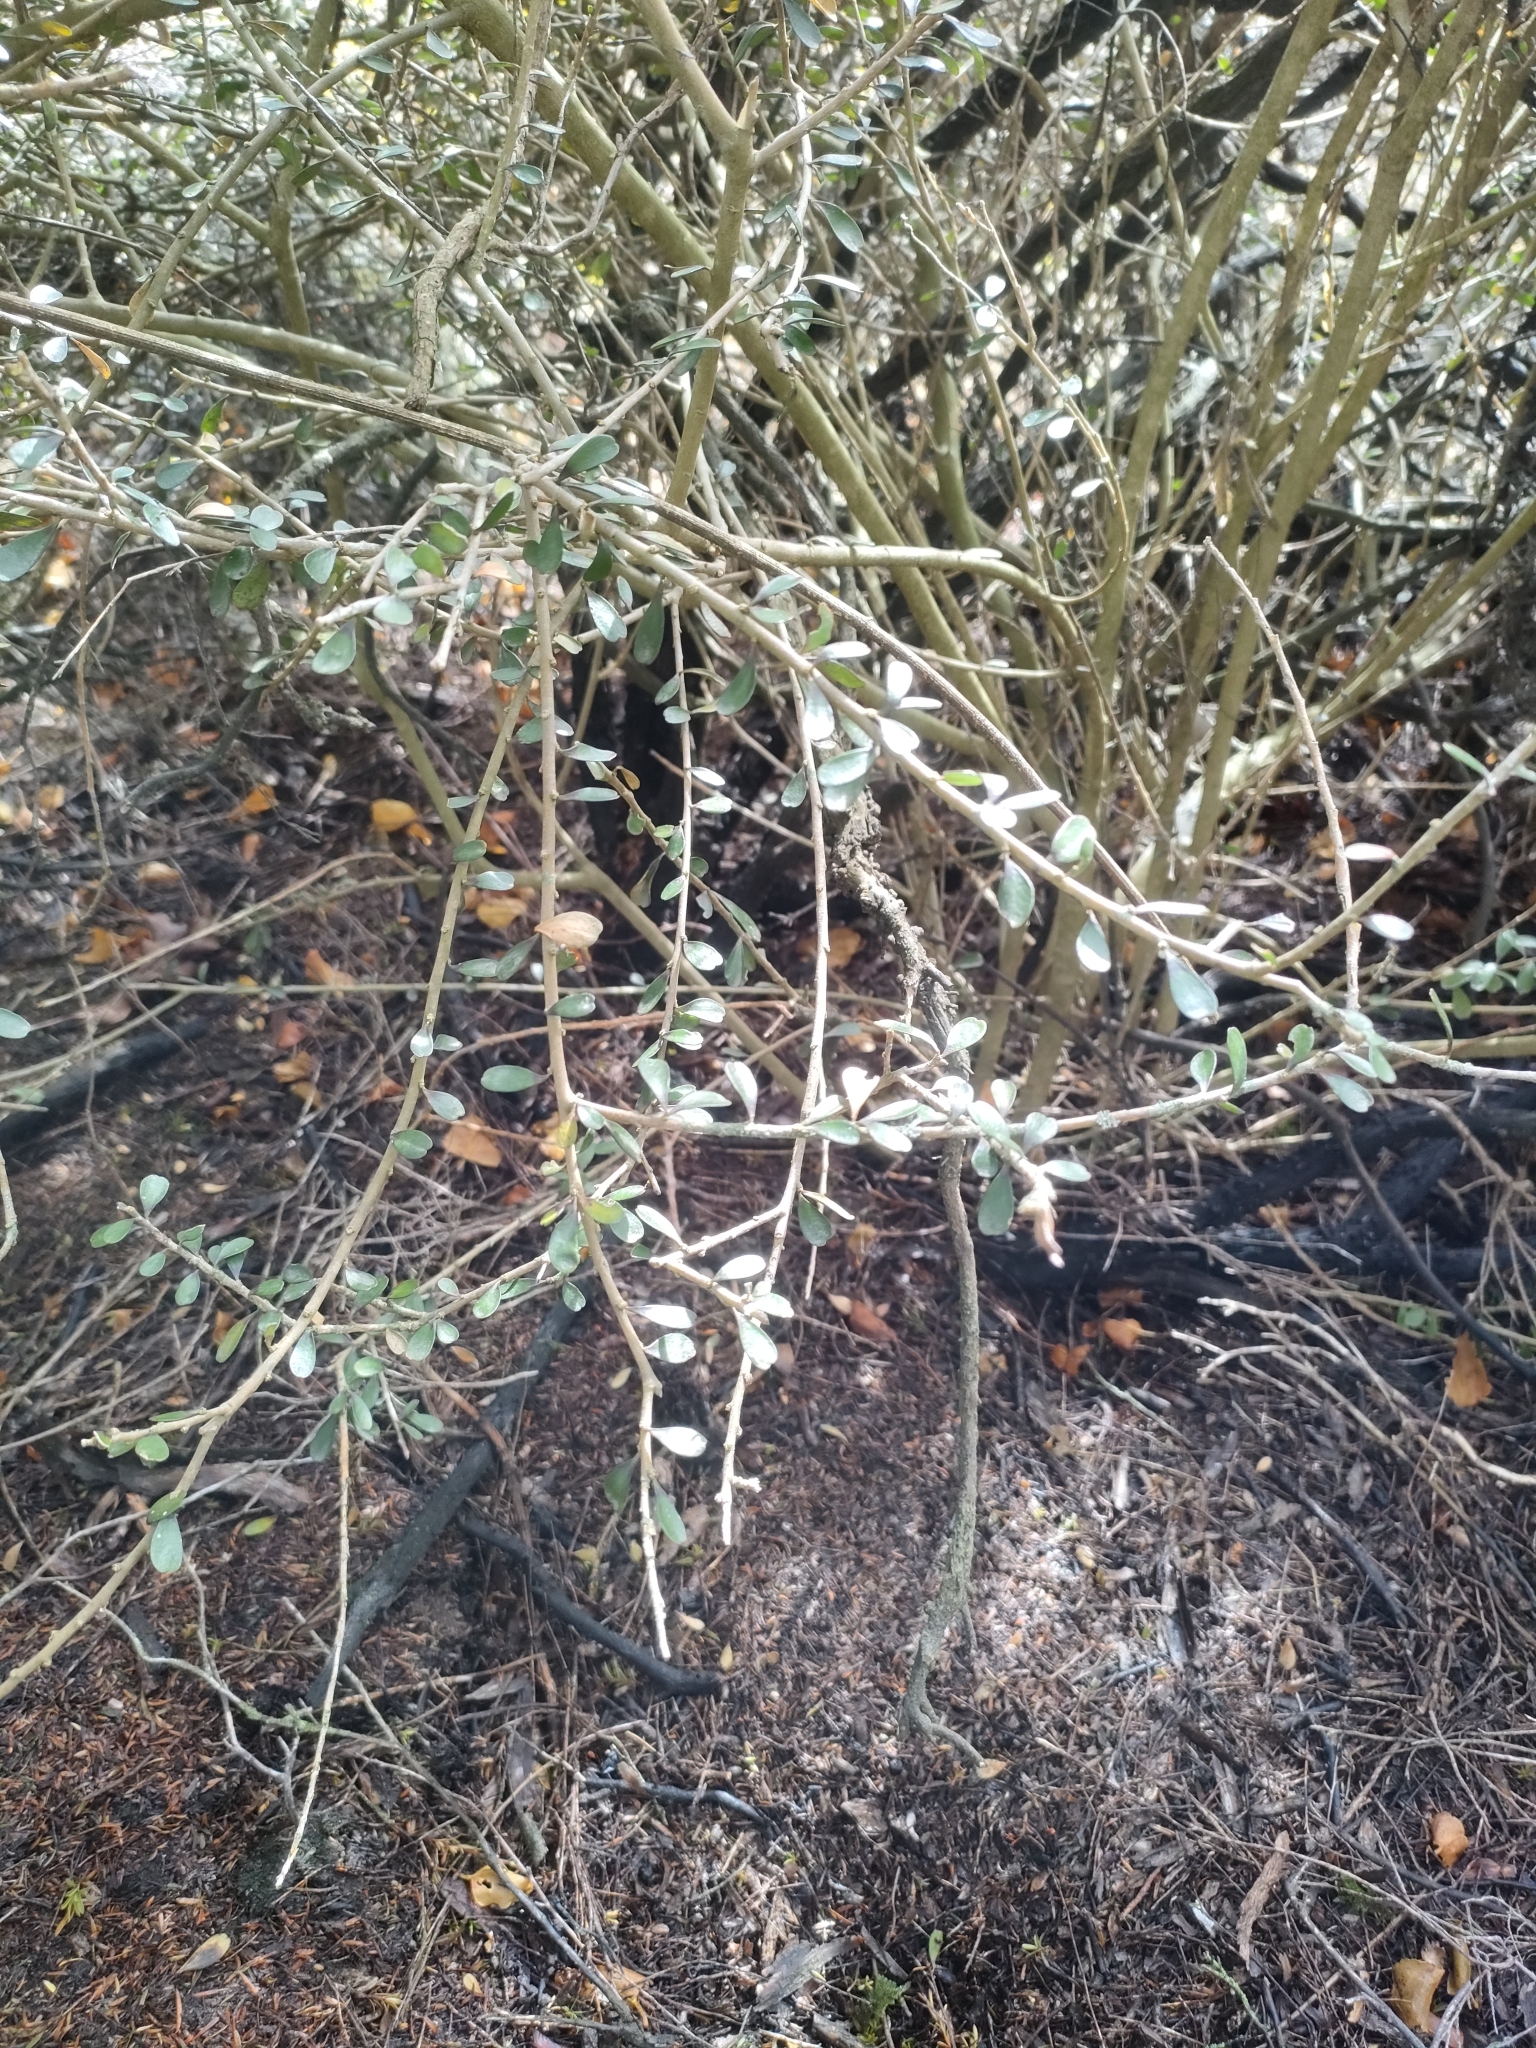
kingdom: Plantae
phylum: Tracheophyta
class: Magnoliopsida
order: Malpighiales
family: Violaceae
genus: Melicytus
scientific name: Melicytus alpinus
